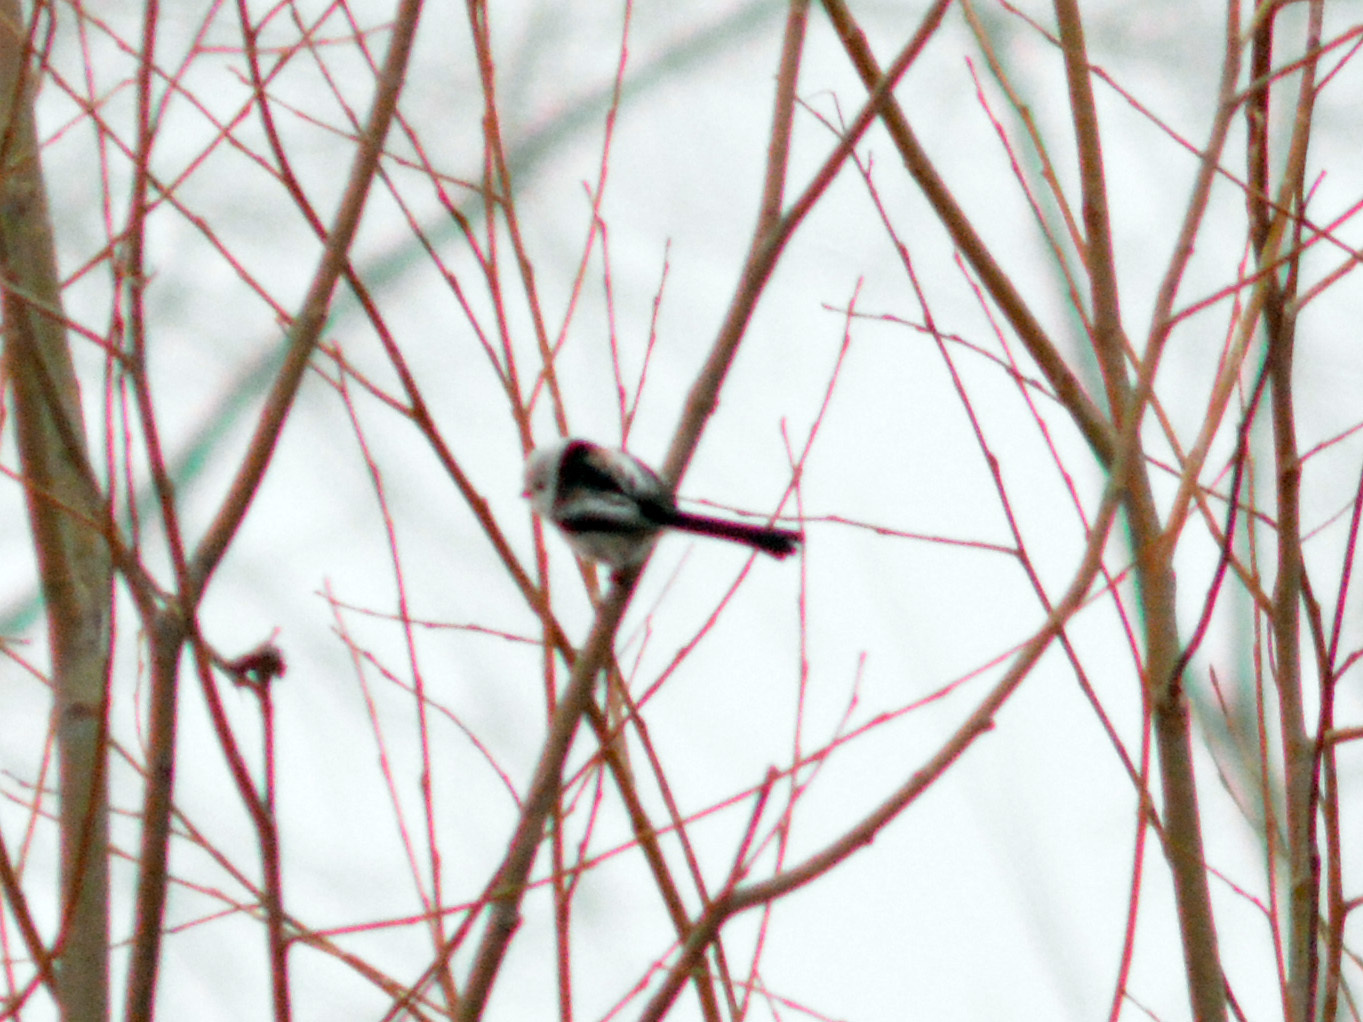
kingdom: Animalia
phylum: Chordata
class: Aves
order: Passeriformes
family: Aegithalidae
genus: Aegithalos
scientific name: Aegithalos caudatus
